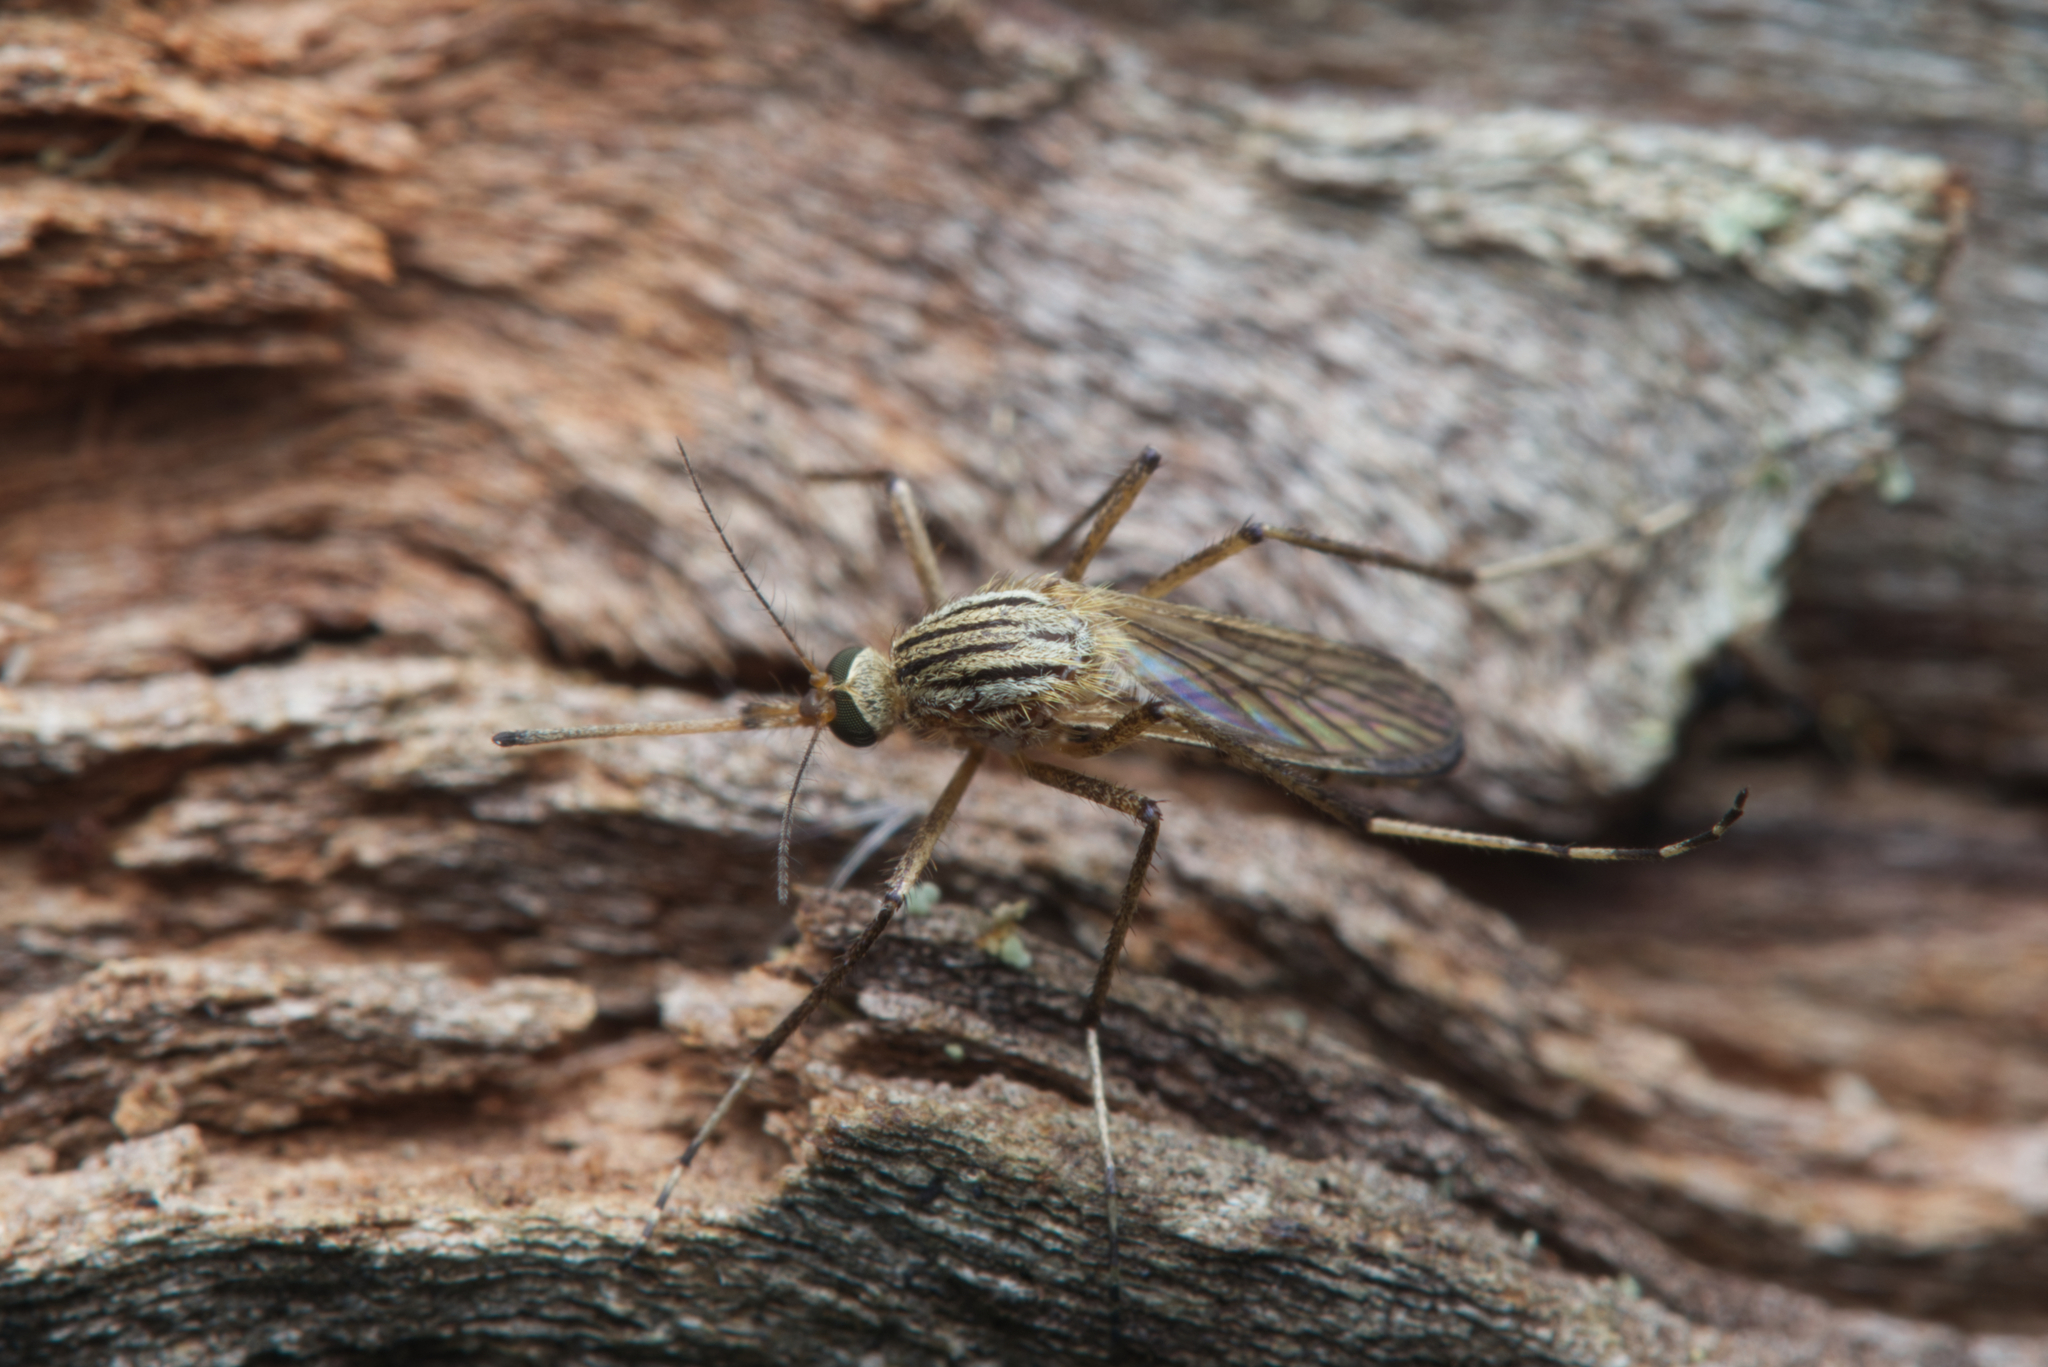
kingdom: Animalia
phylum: Arthropoda
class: Insecta
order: Diptera
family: Culicidae
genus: Aedes
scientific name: Aedes vittiger
